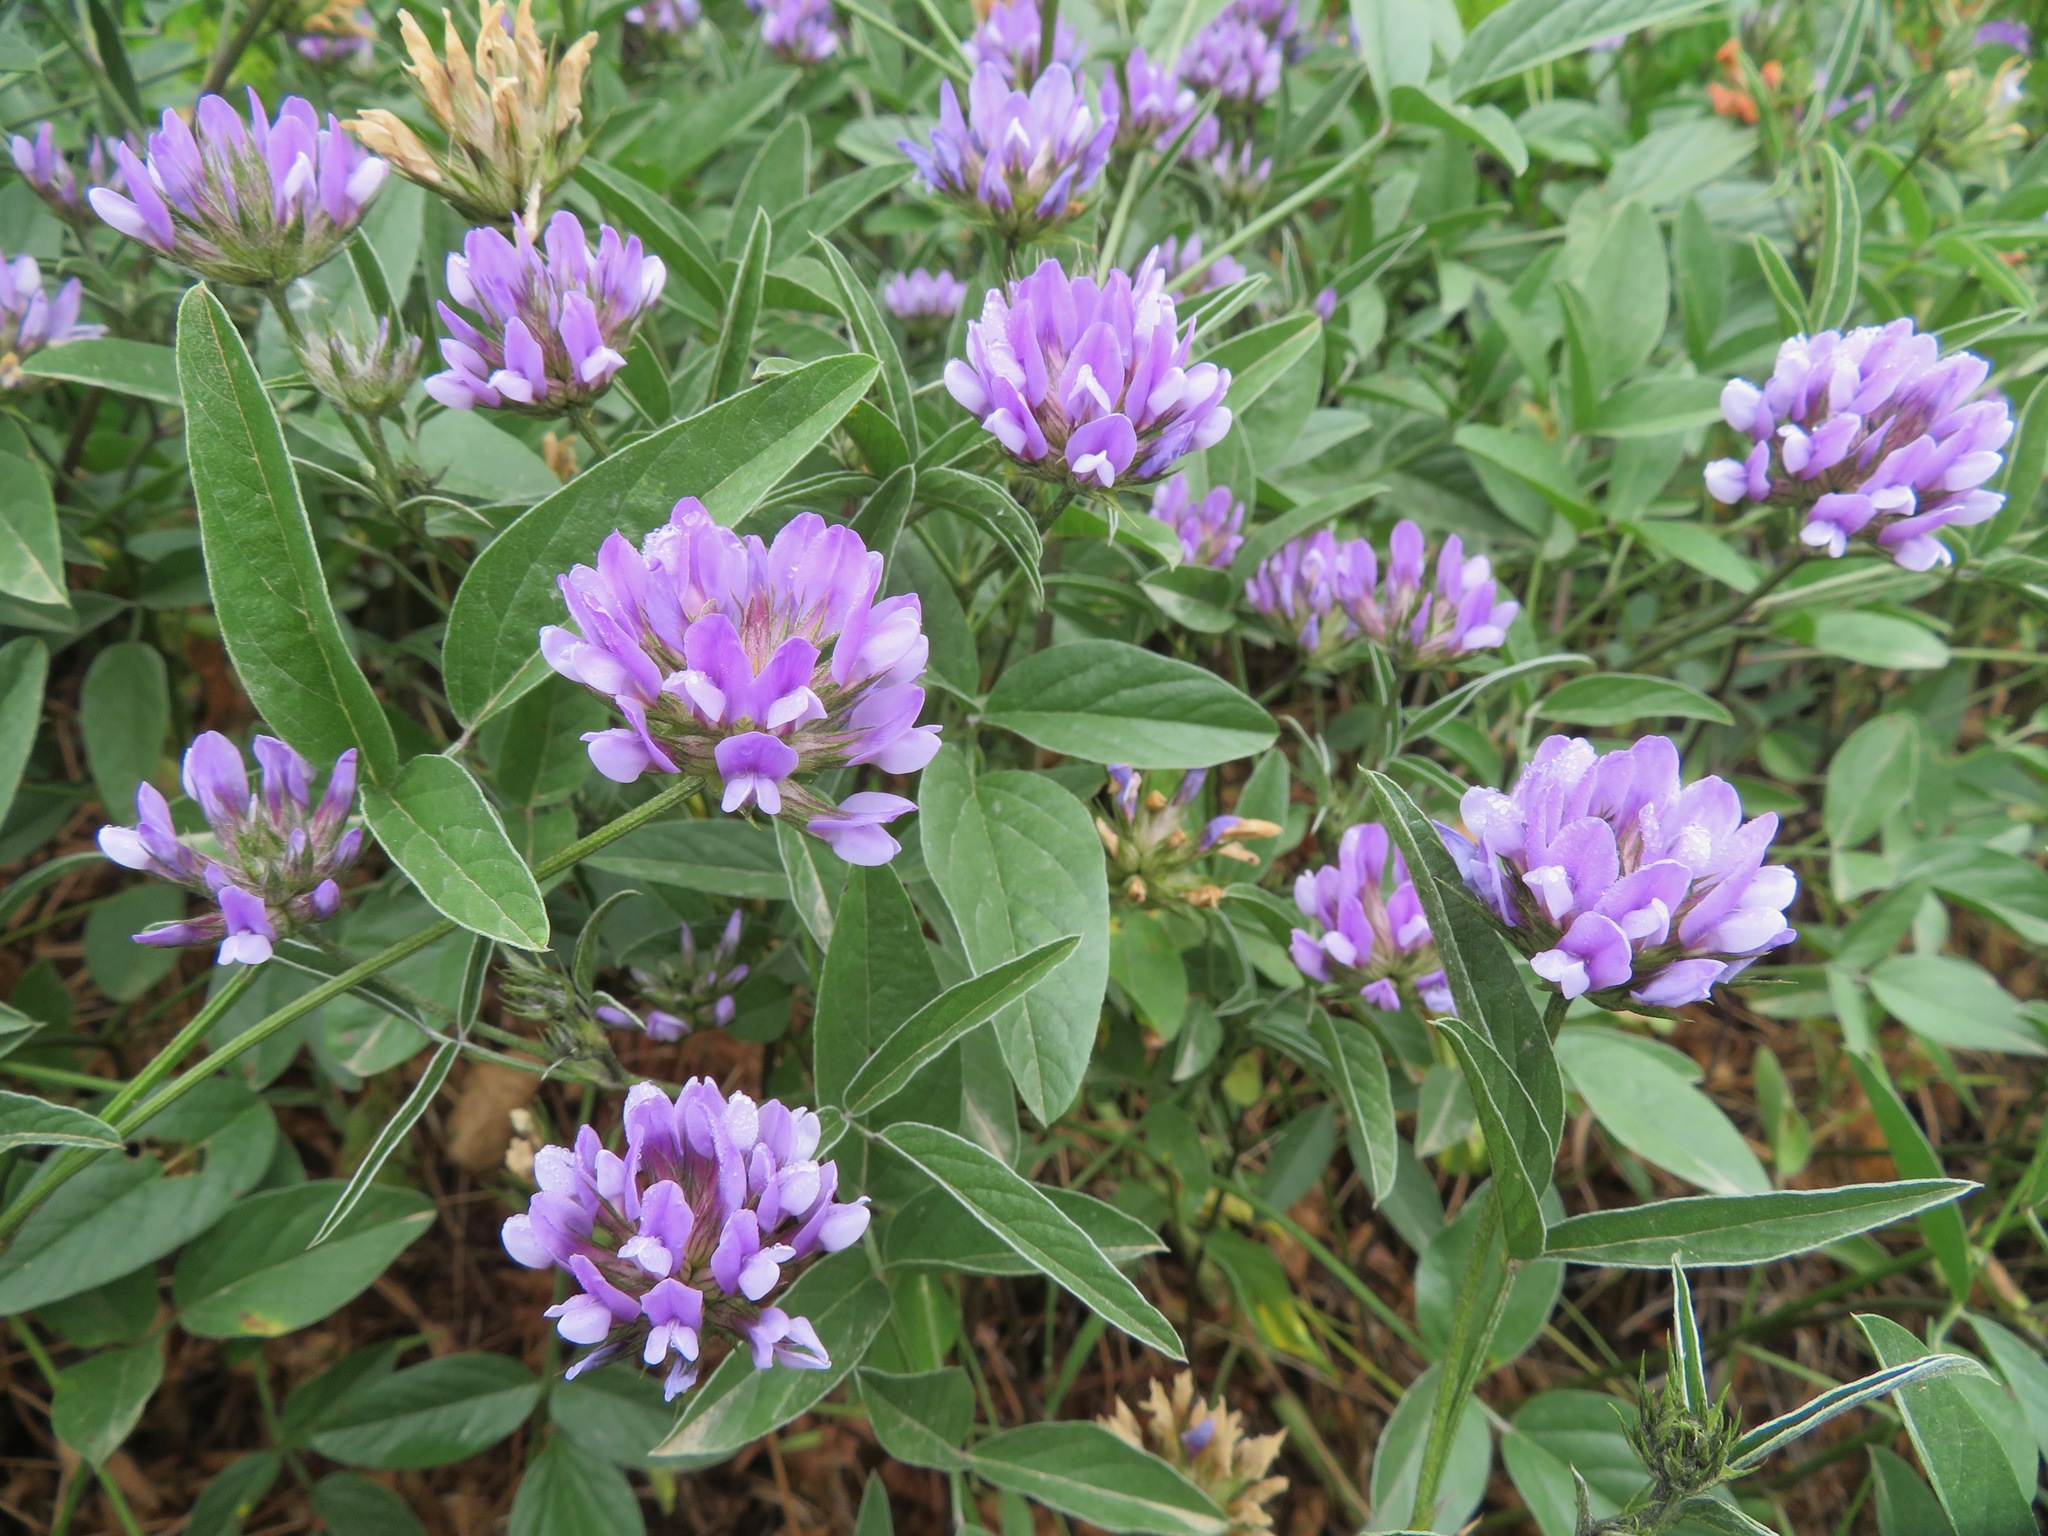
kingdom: Plantae
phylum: Tracheophyta
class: Magnoliopsida
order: Fabales
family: Fabaceae
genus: Bituminaria
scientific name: Bituminaria bituminosa
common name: Arabian pea
